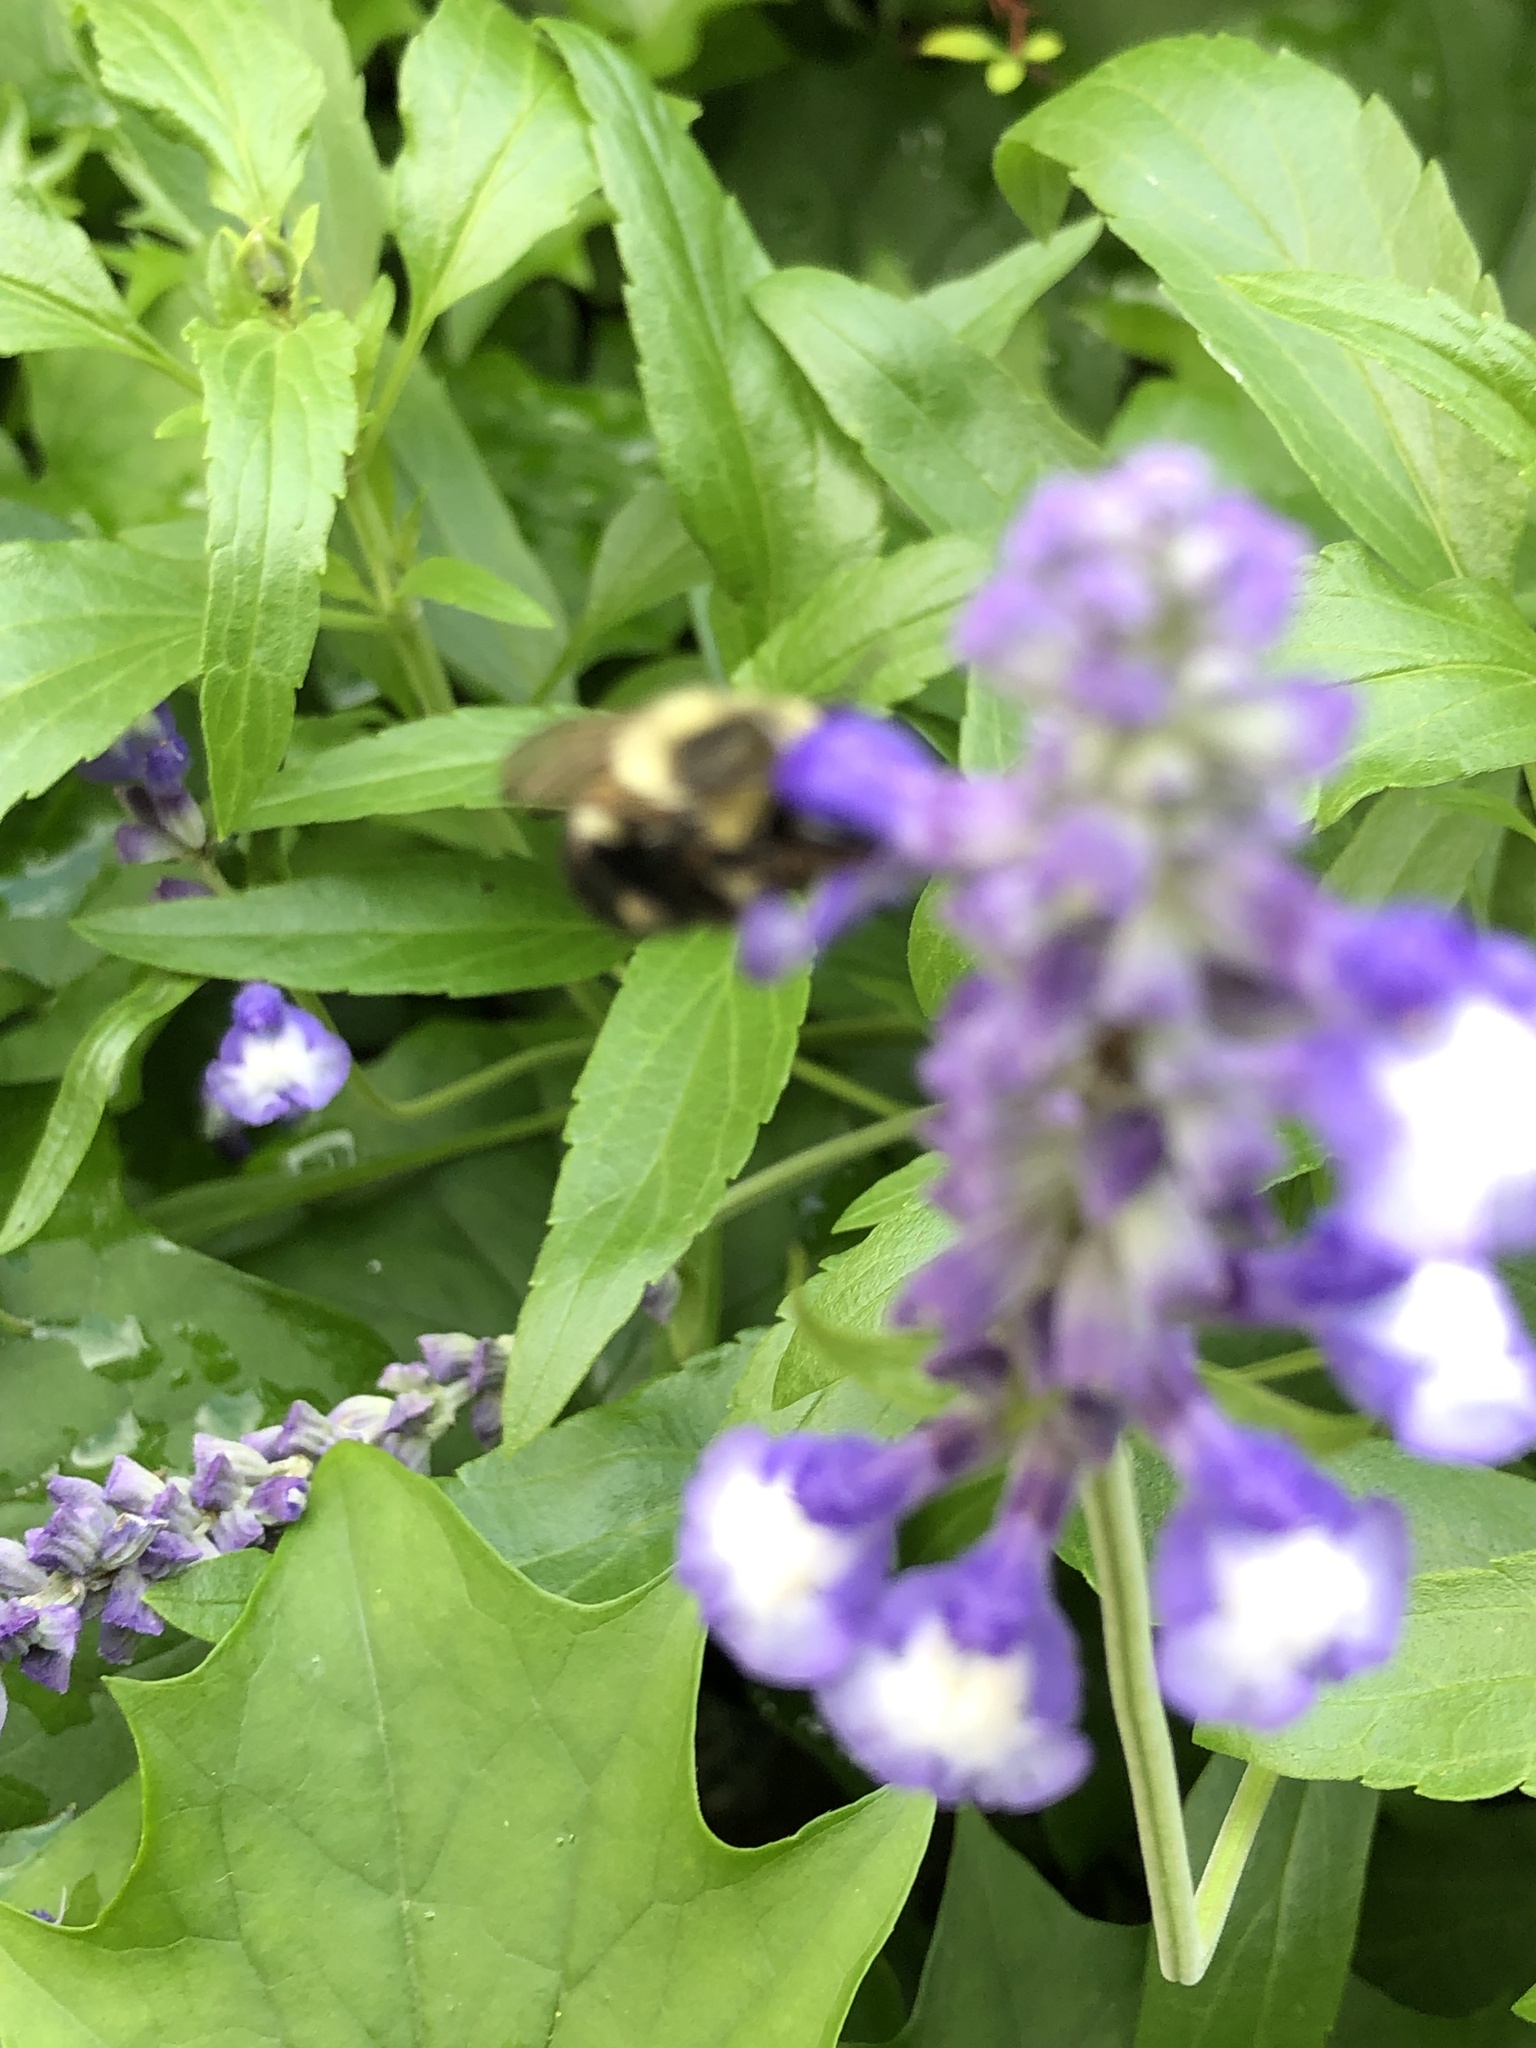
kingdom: Animalia
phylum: Arthropoda
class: Insecta
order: Hymenoptera
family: Apidae
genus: Bombus
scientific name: Bombus impatiens
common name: Common eastern bumble bee
